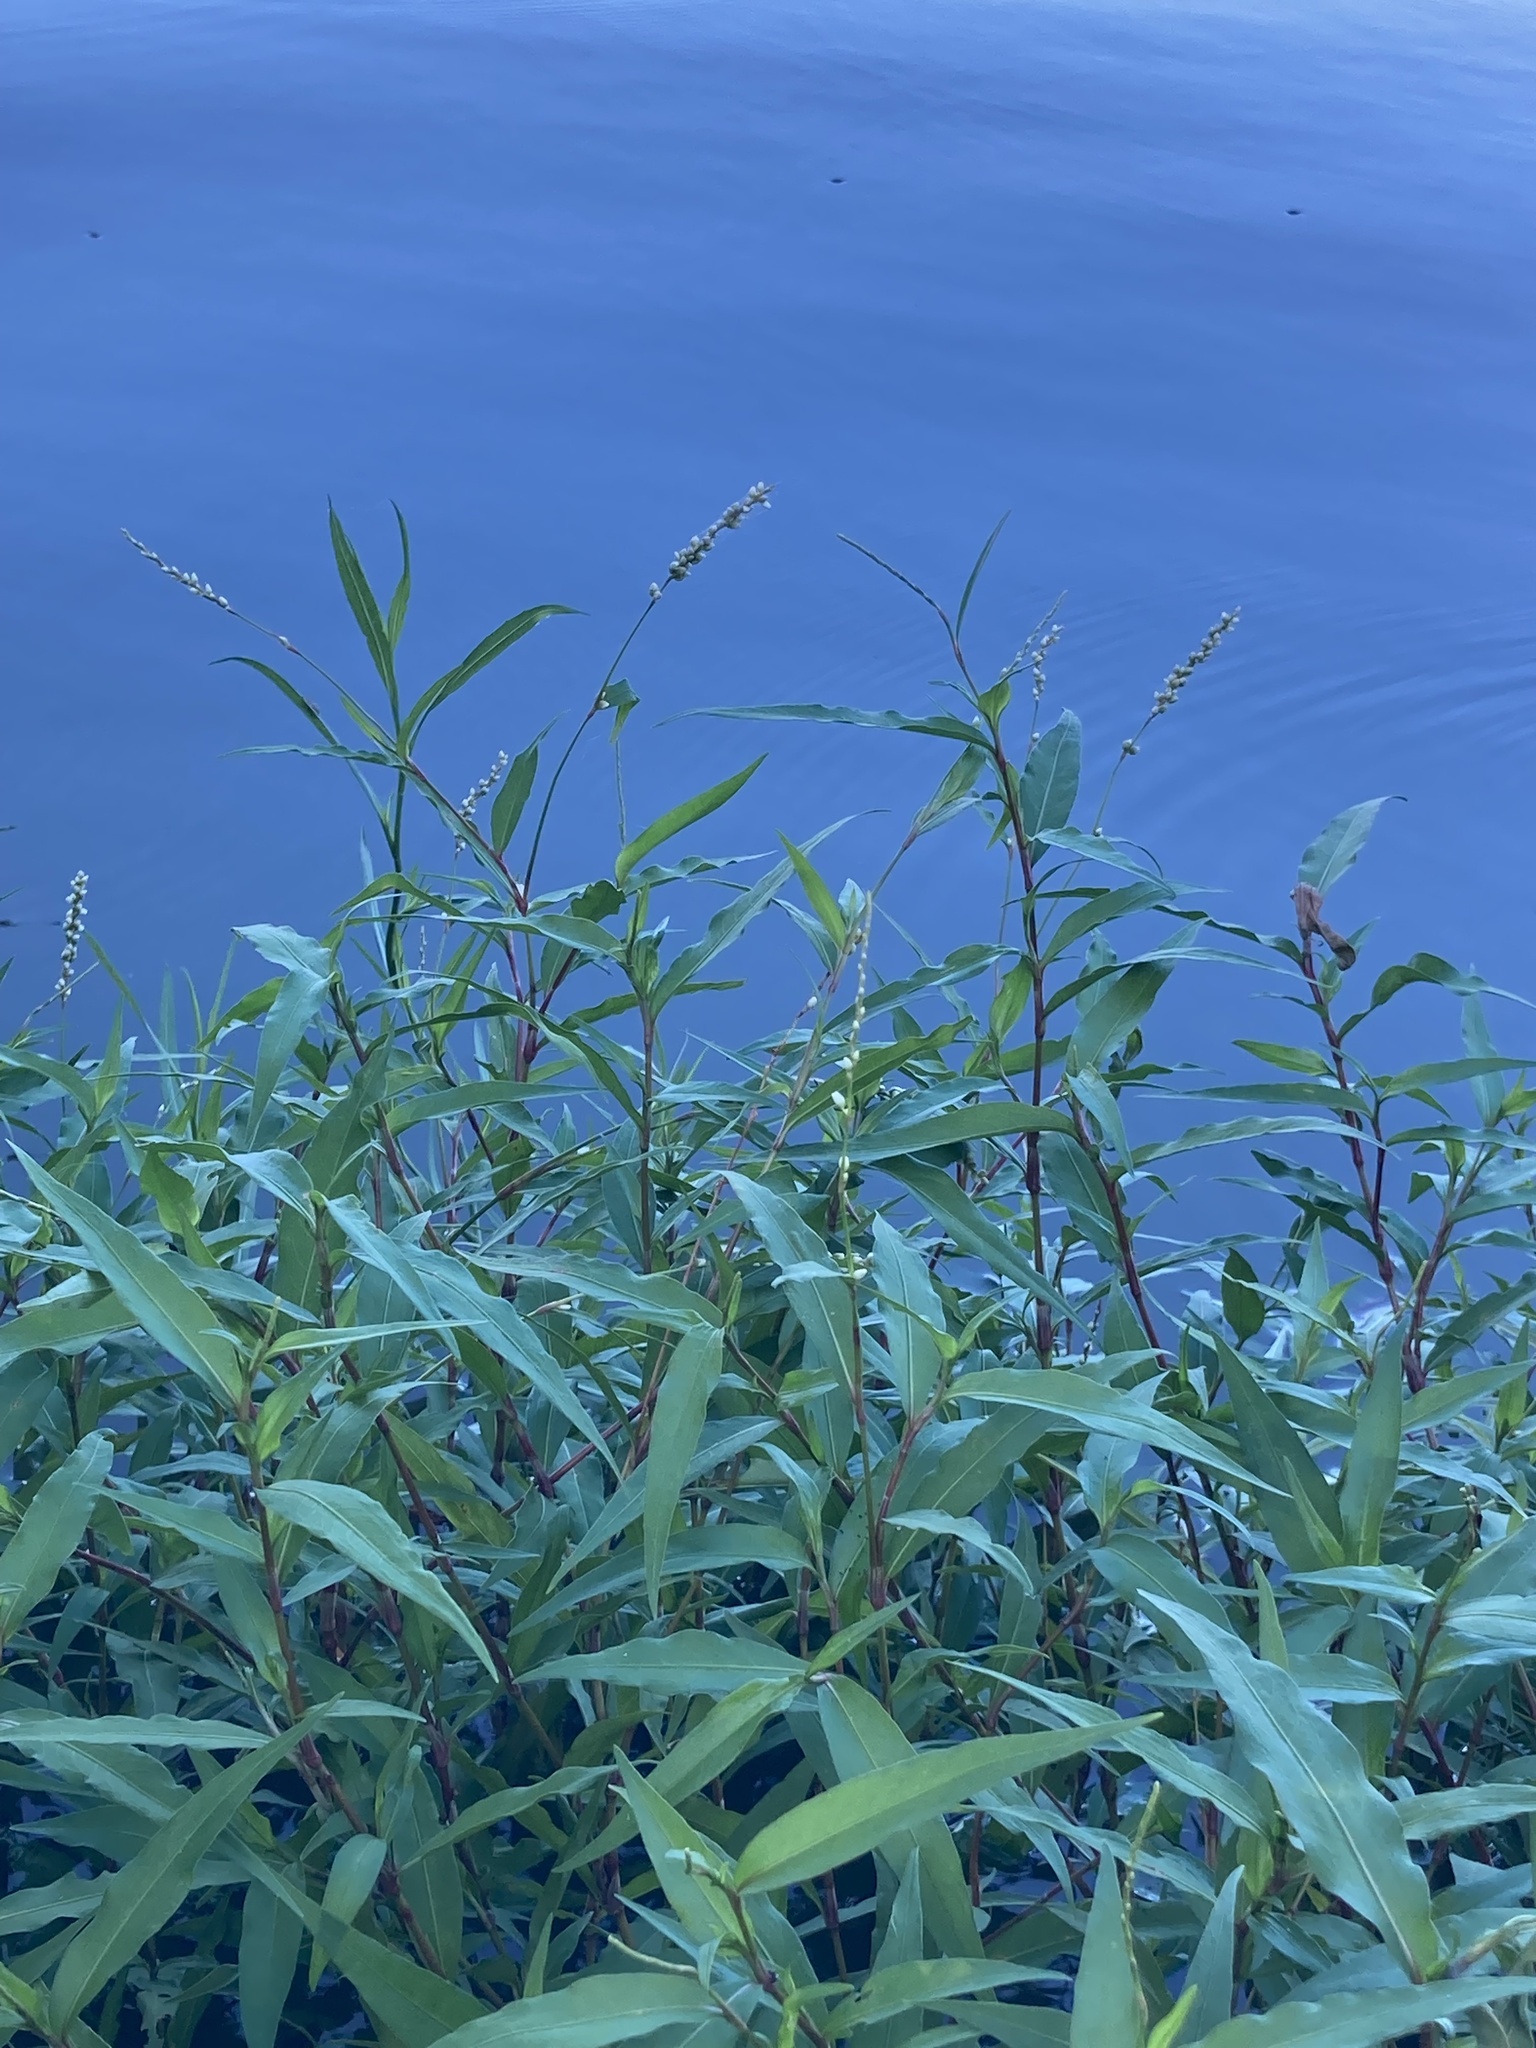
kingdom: Plantae
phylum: Tracheophyta
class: Magnoliopsida
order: Caryophyllales
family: Polygonaceae
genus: Persicaria
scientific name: Persicaria punctata
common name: Dotted smartweed
